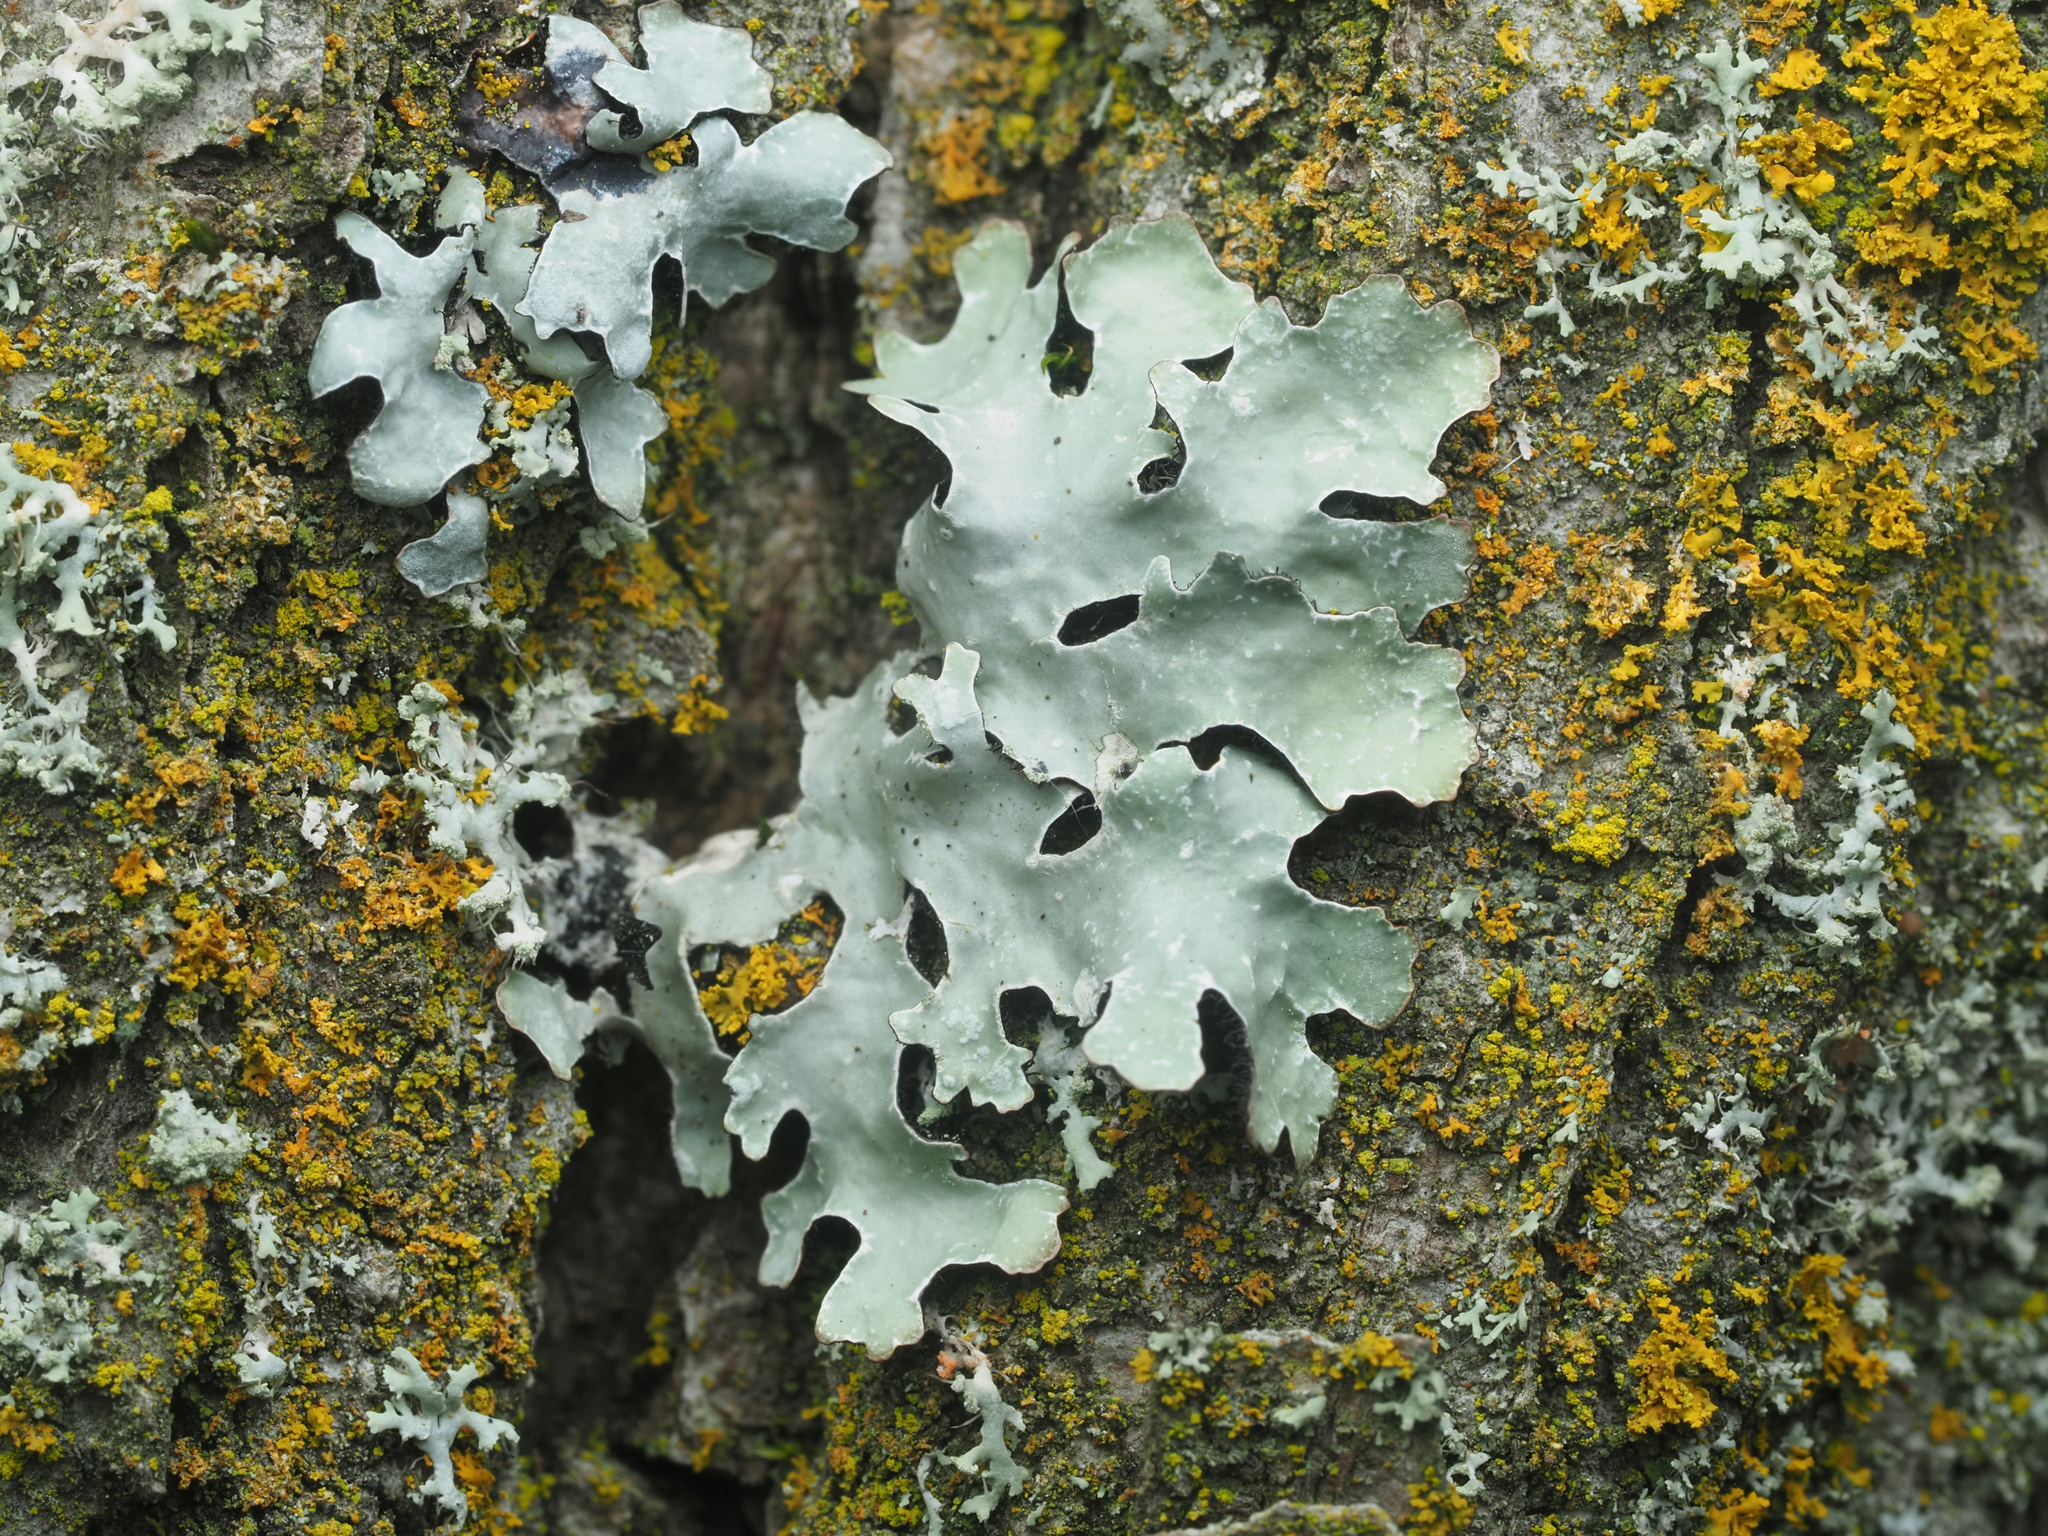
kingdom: Fungi
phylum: Ascomycota
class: Lecanoromycetes
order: Lecanorales
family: Parmeliaceae
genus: Parmelia
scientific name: Parmelia sulcata
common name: Netted shield lichen
